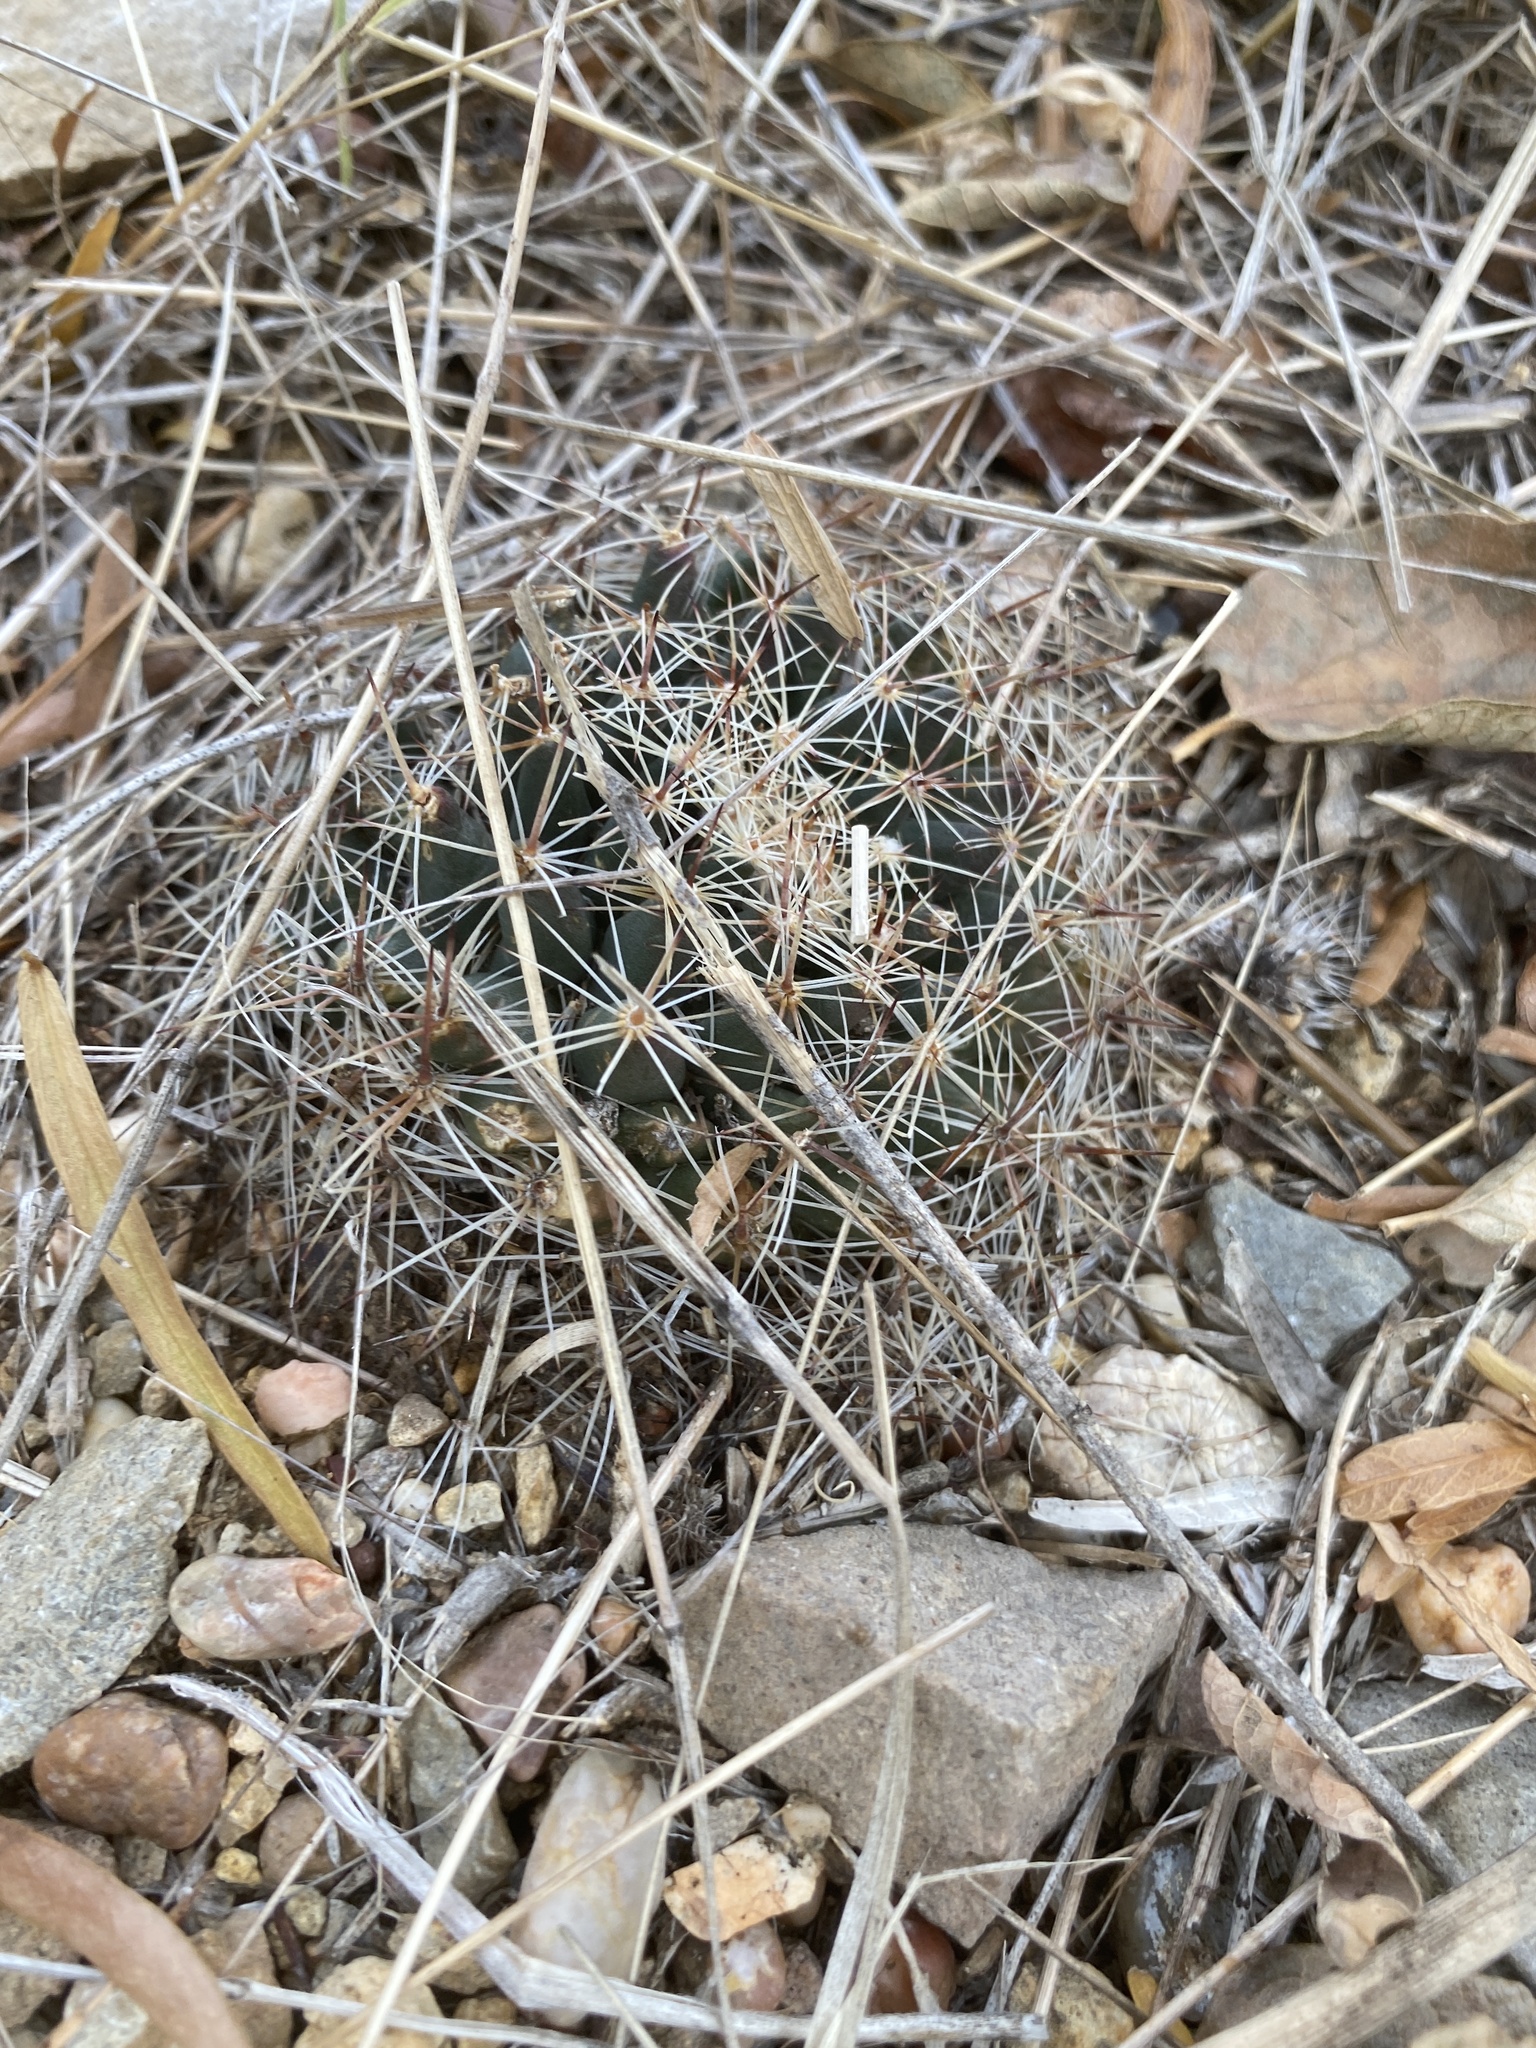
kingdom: Plantae
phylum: Tracheophyta
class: Magnoliopsida
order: Caryophyllales
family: Cactaceae
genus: Mammillaria
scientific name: Mammillaria heyderi
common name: Little nipple cactus
